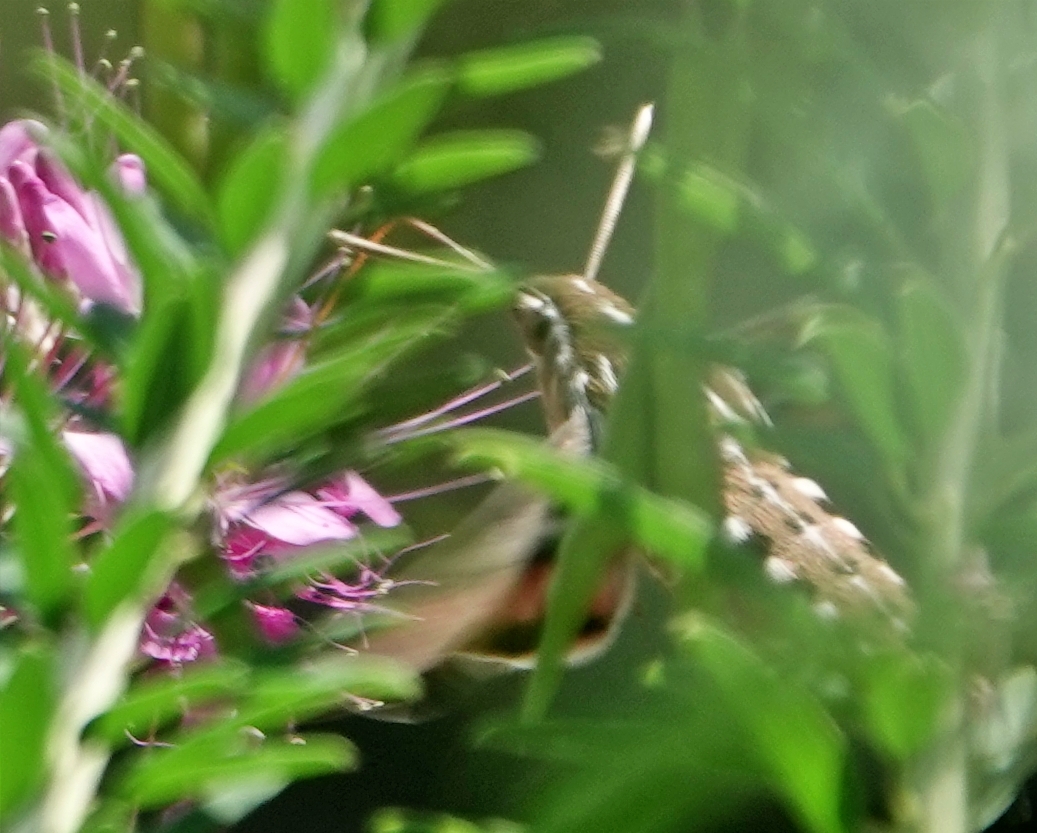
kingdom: Animalia
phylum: Arthropoda
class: Insecta
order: Lepidoptera
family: Sphingidae
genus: Hyles
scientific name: Hyles lineata
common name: White-lined sphinx
